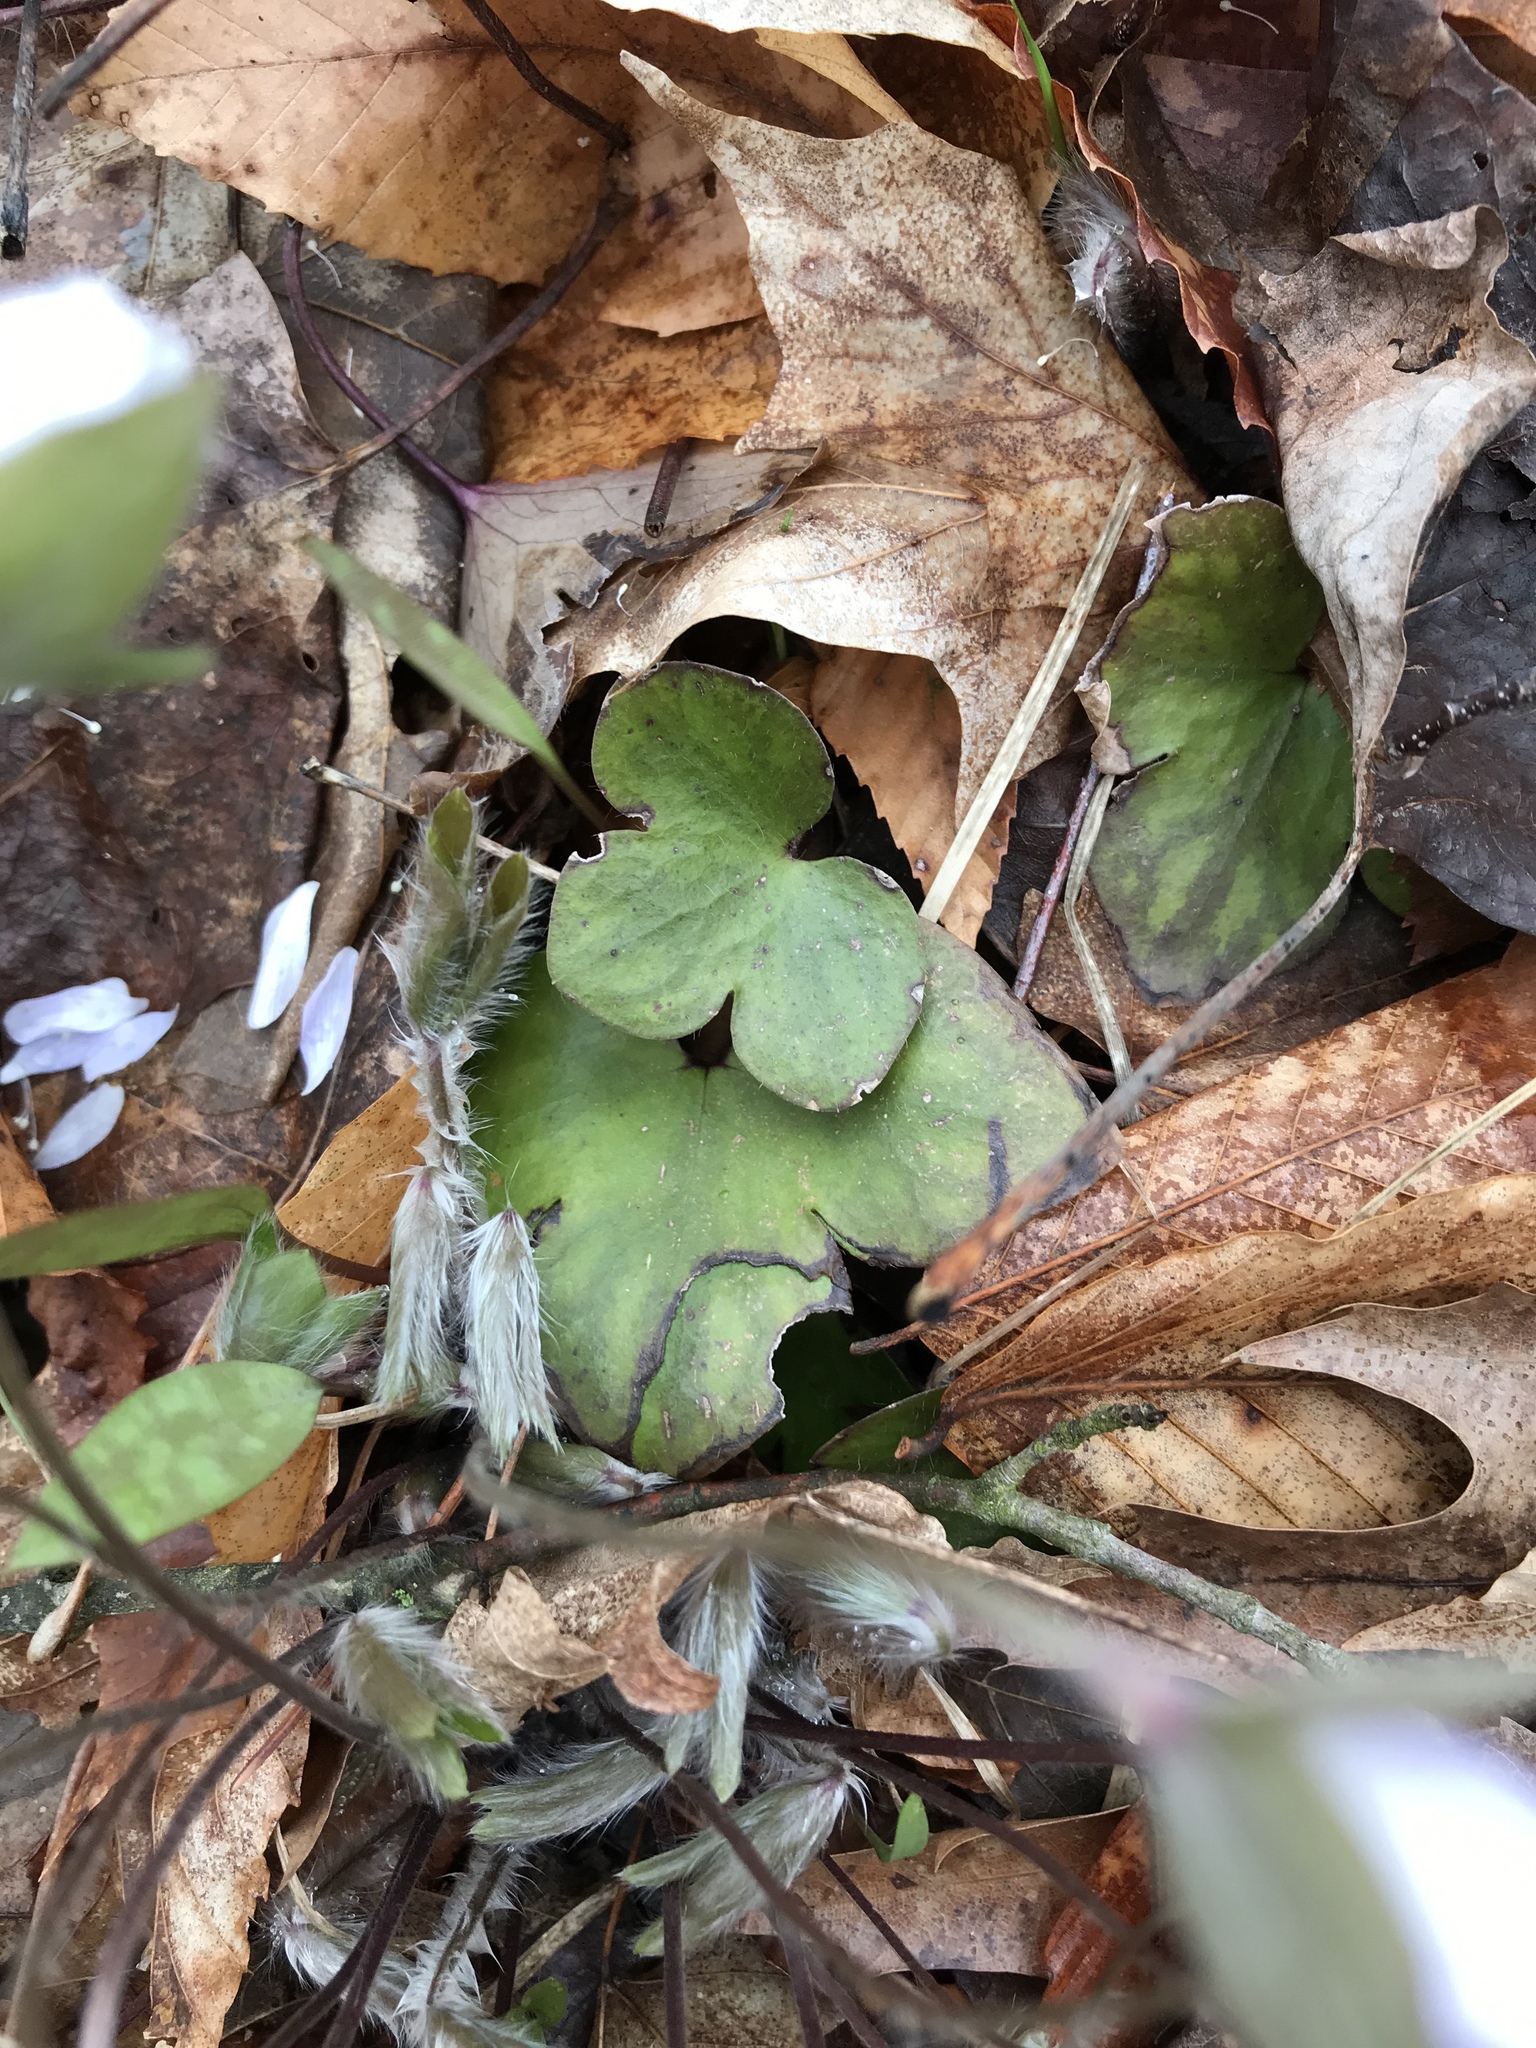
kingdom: Plantae
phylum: Tracheophyta
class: Magnoliopsida
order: Ranunculales
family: Ranunculaceae
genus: Hepatica
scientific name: Hepatica americana
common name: American hepatica
